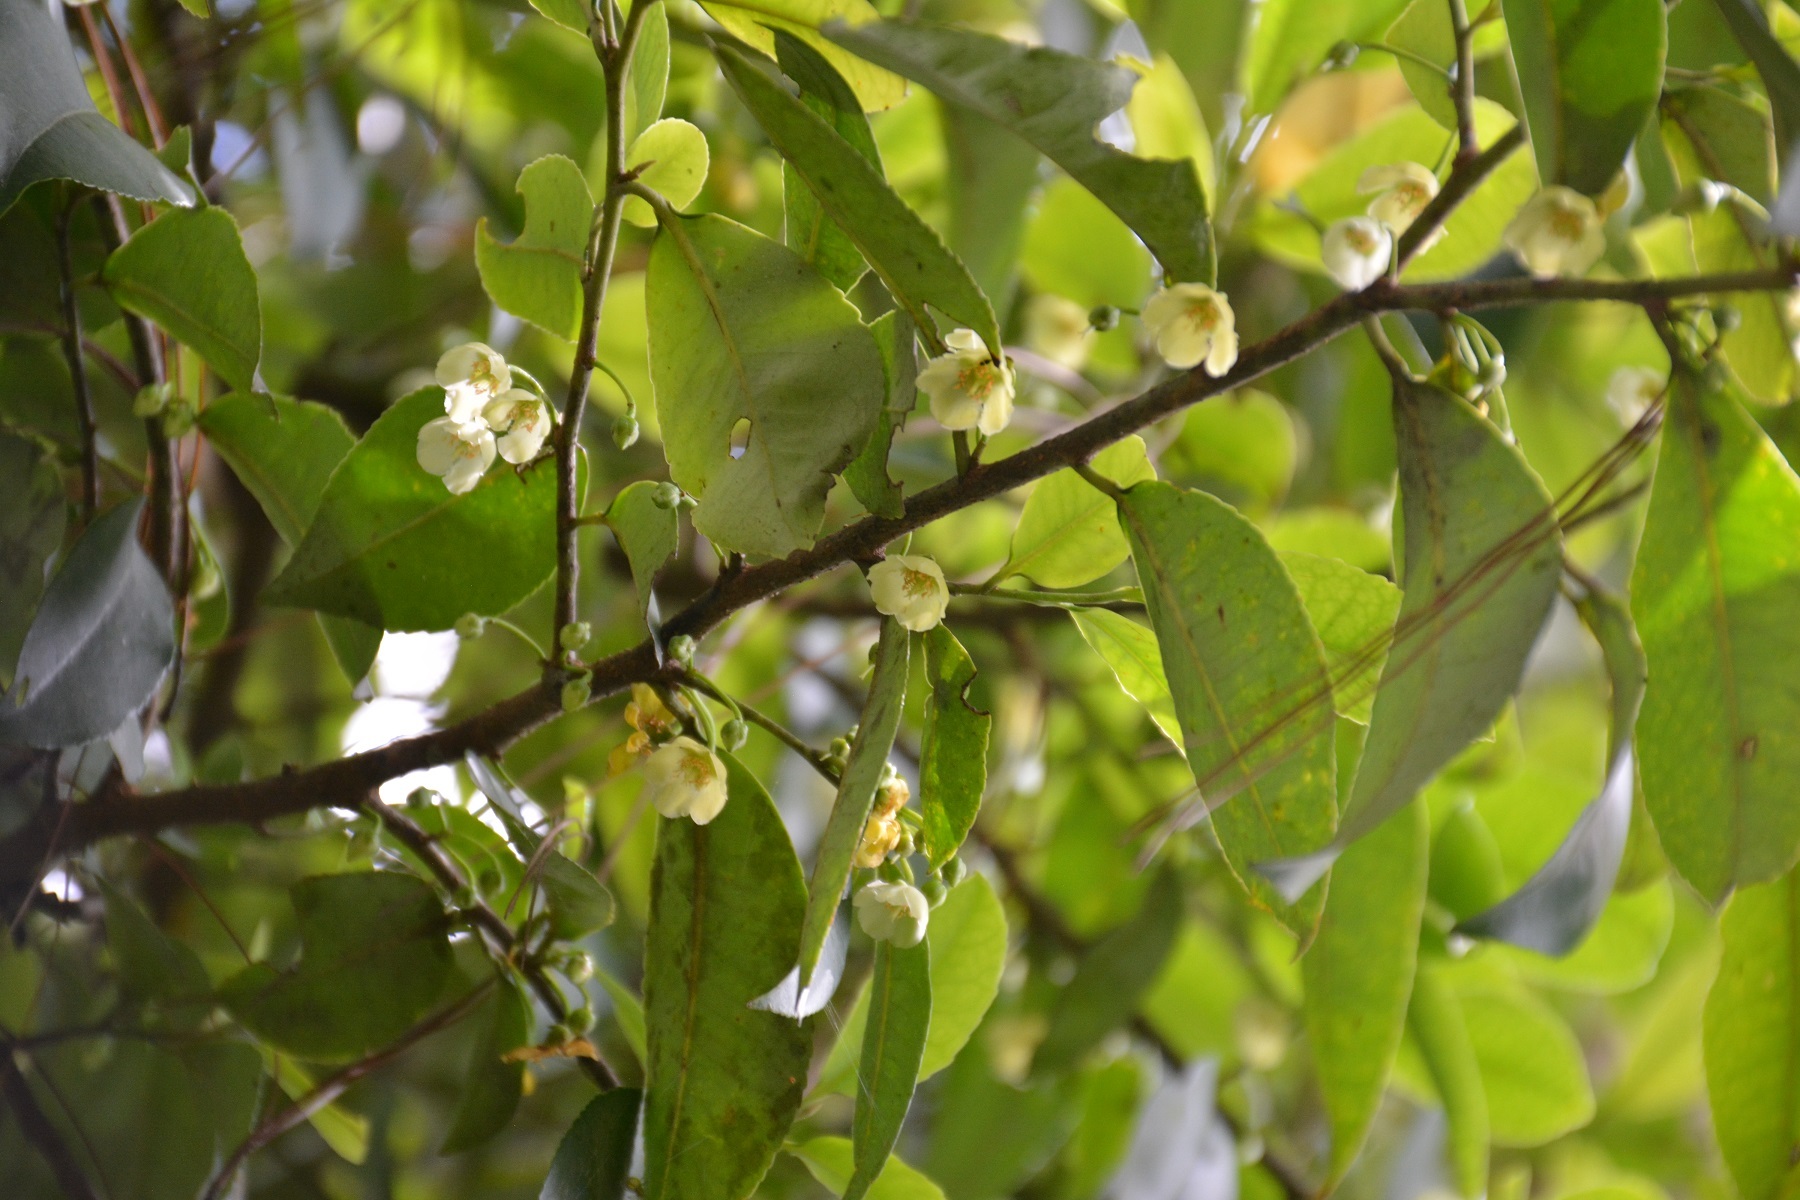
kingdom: Plantae
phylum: Tracheophyta
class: Magnoliopsida
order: Ericales
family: Pentaphylacaceae
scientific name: Pentaphylacaceae
